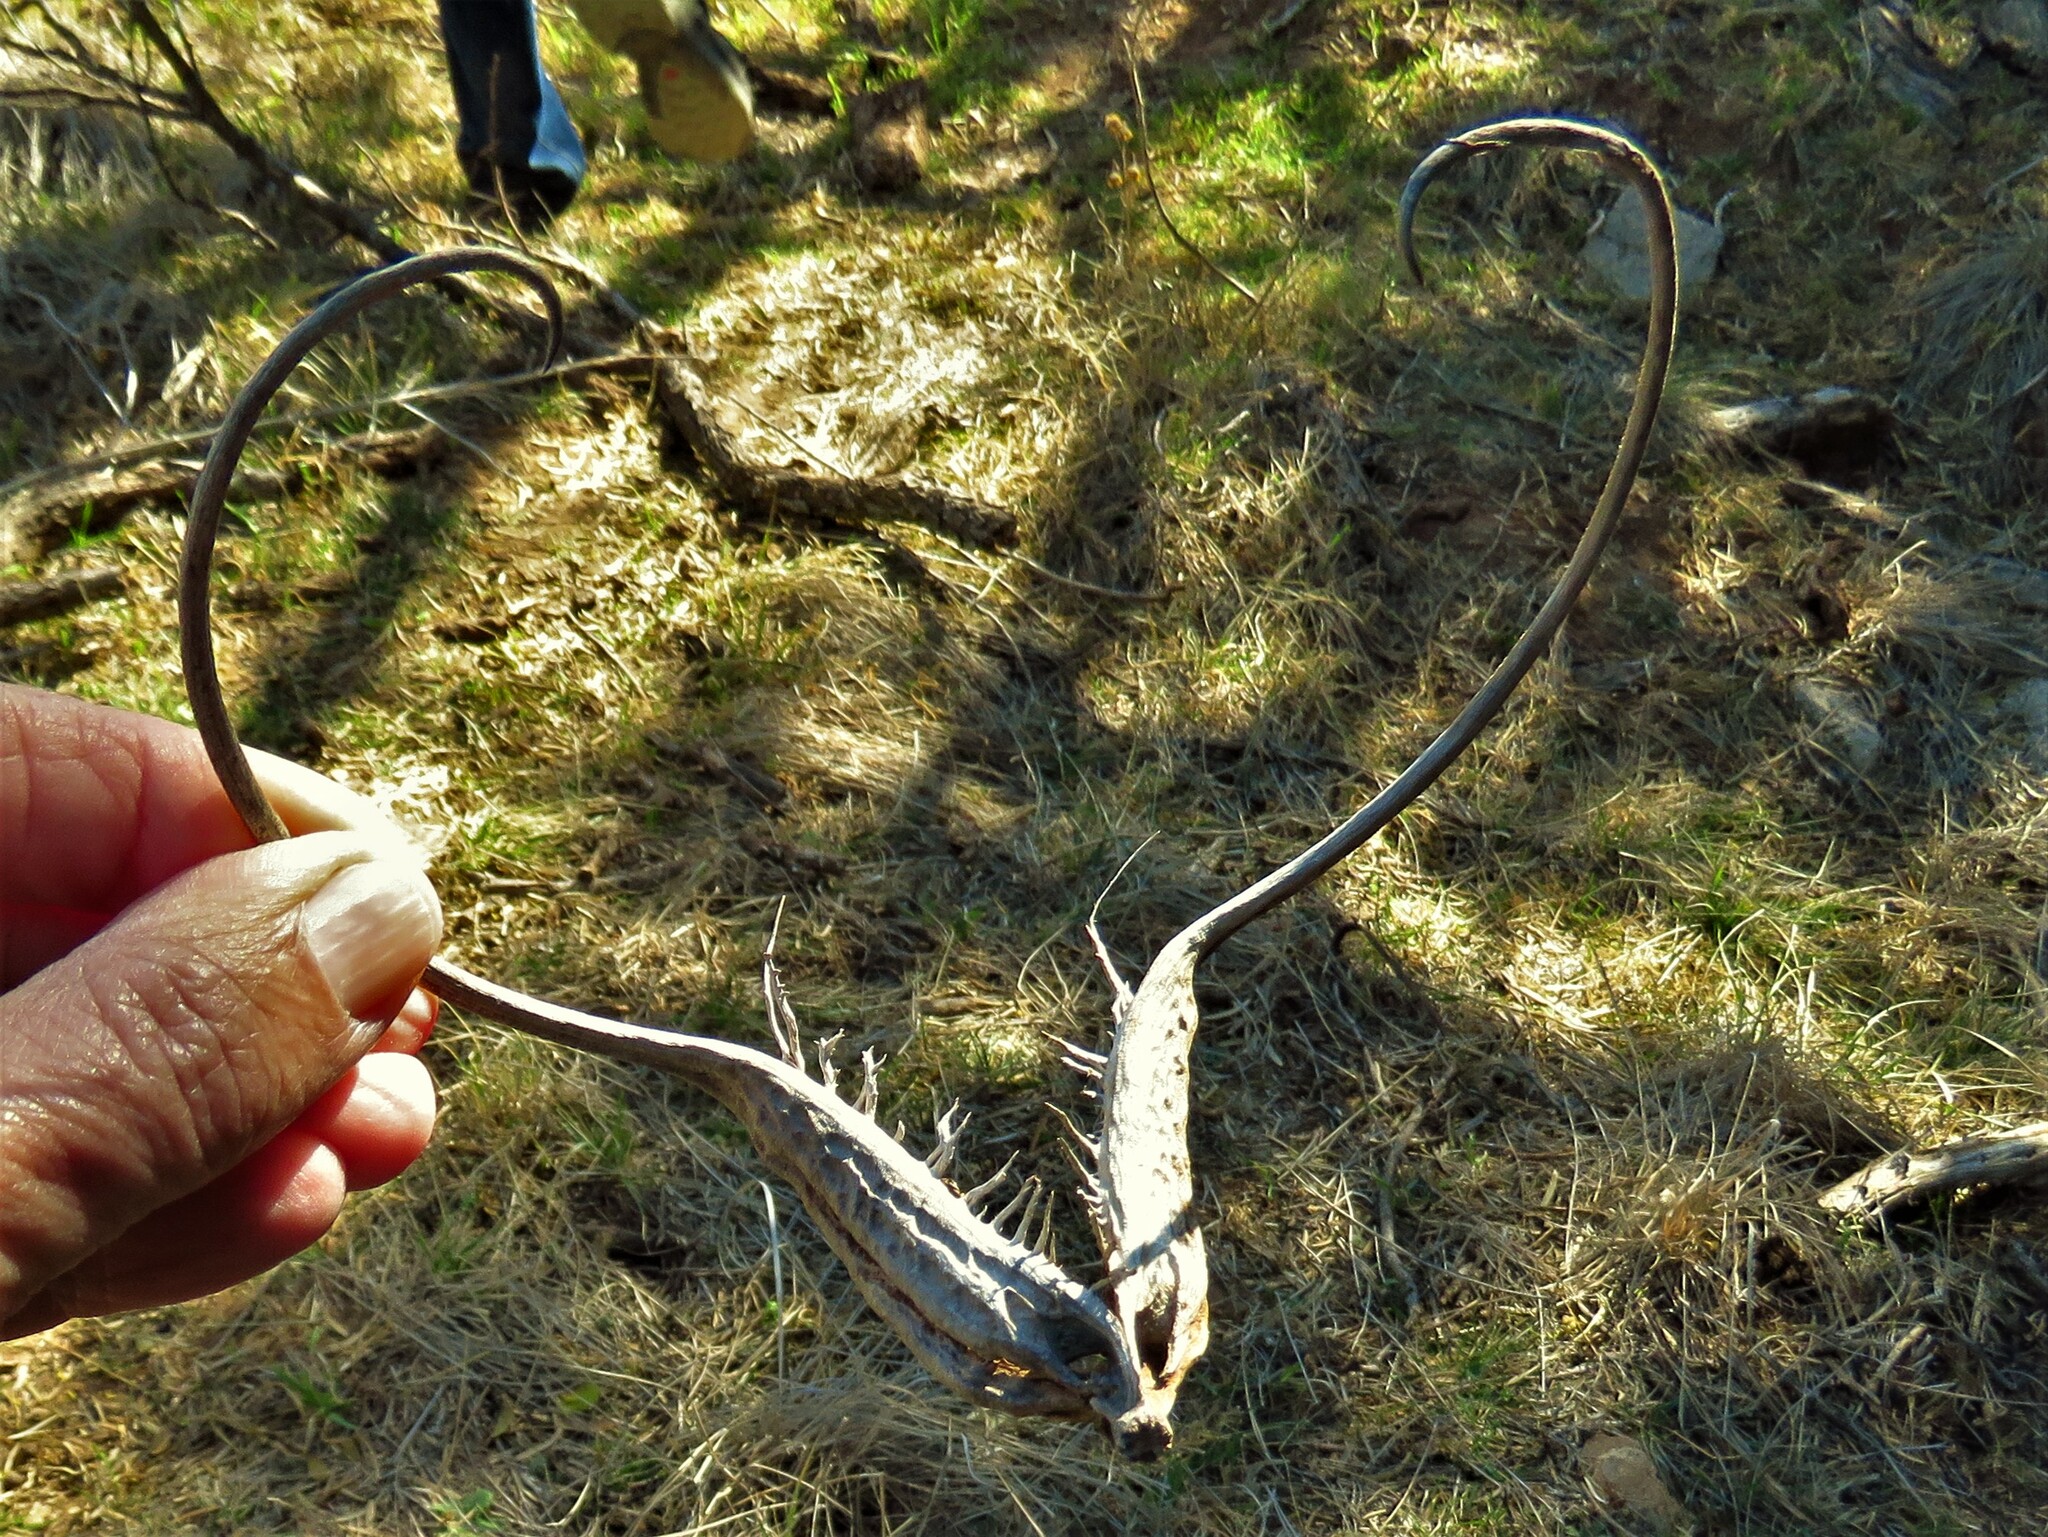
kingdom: Plantae
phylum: Tracheophyta
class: Magnoliopsida
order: Lamiales
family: Martyniaceae
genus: Proboscidea
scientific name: Proboscidea louisianica
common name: Elephant tusks
